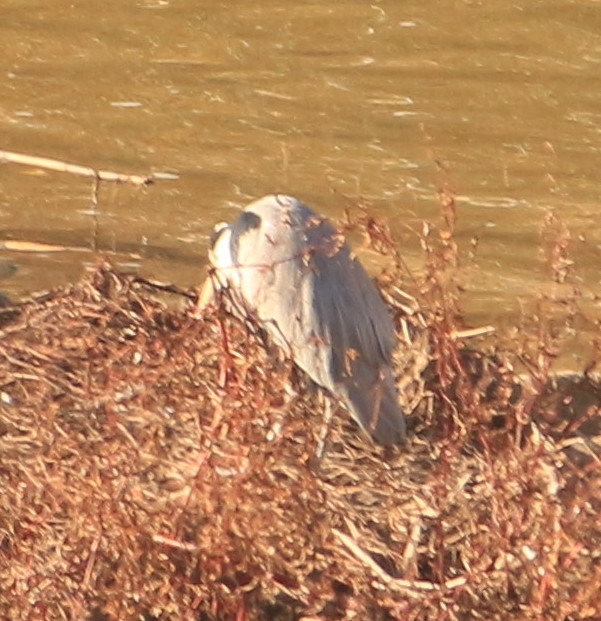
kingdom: Animalia
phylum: Chordata
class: Aves
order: Pelecaniformes
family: Ardeidae
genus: Ardea
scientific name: Ardea cinerea
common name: Grey heron
